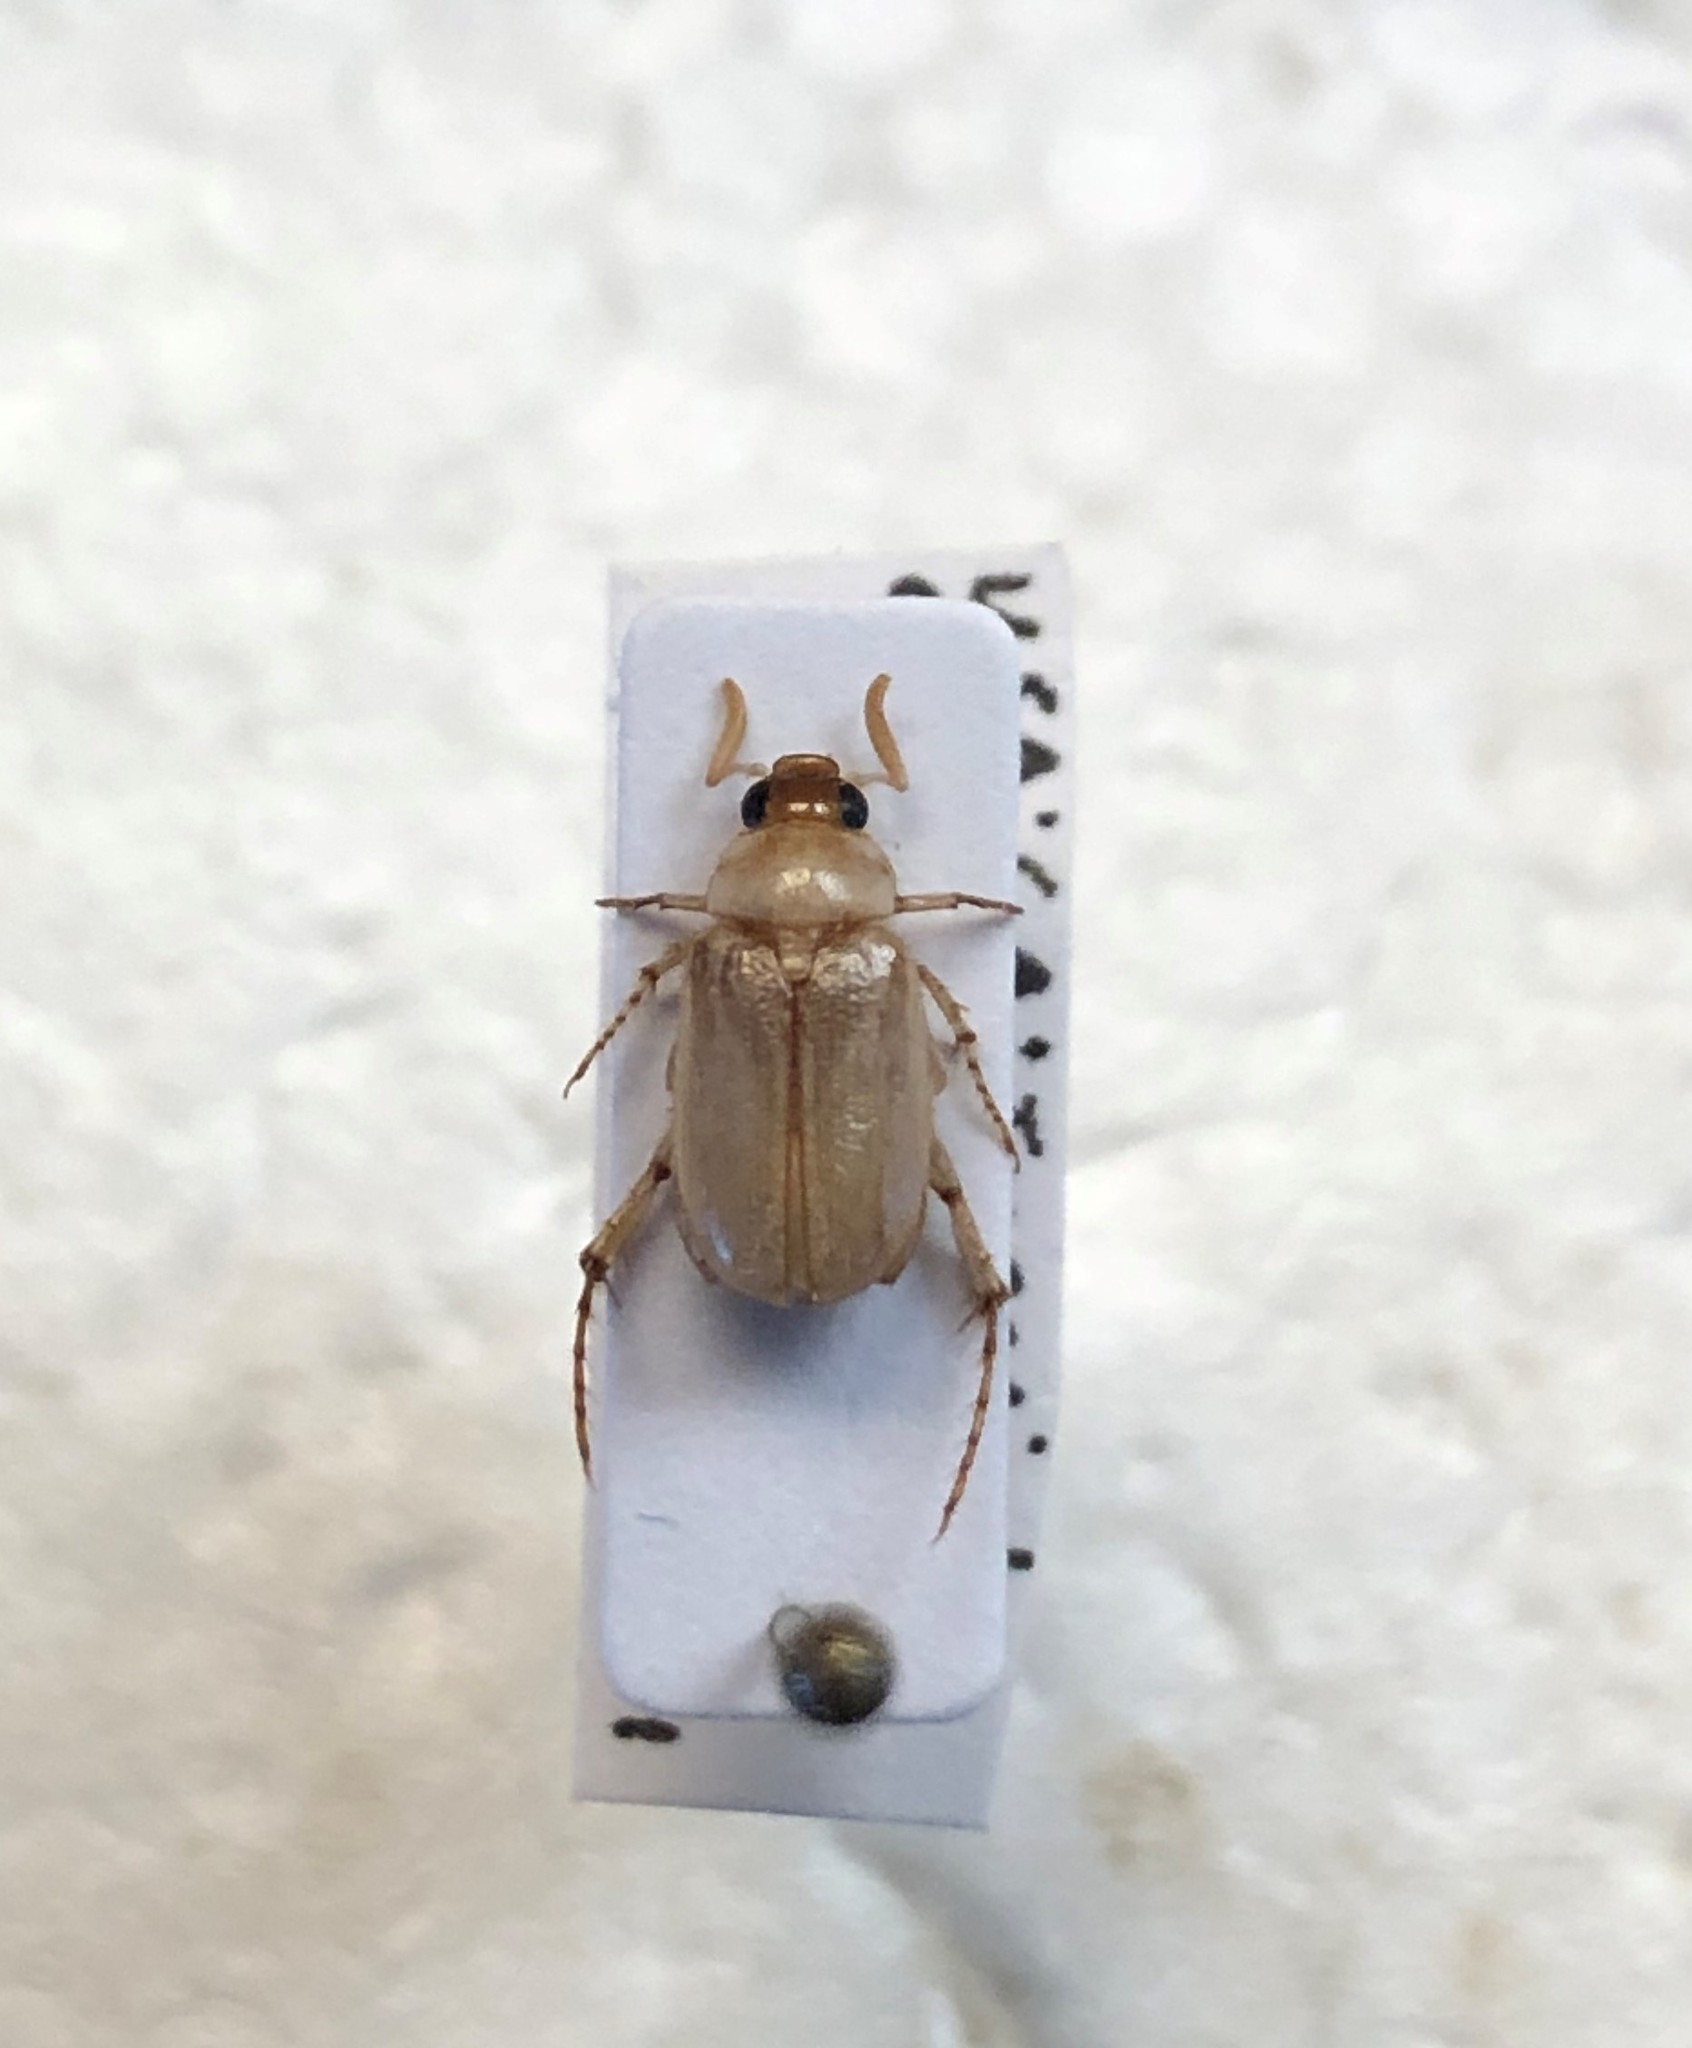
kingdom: Animalia
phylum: Arthropoda
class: Insecta
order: Coleoptera
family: Scarabaeidae
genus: Leptohoplia
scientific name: Leptohoplia testaceipennis
